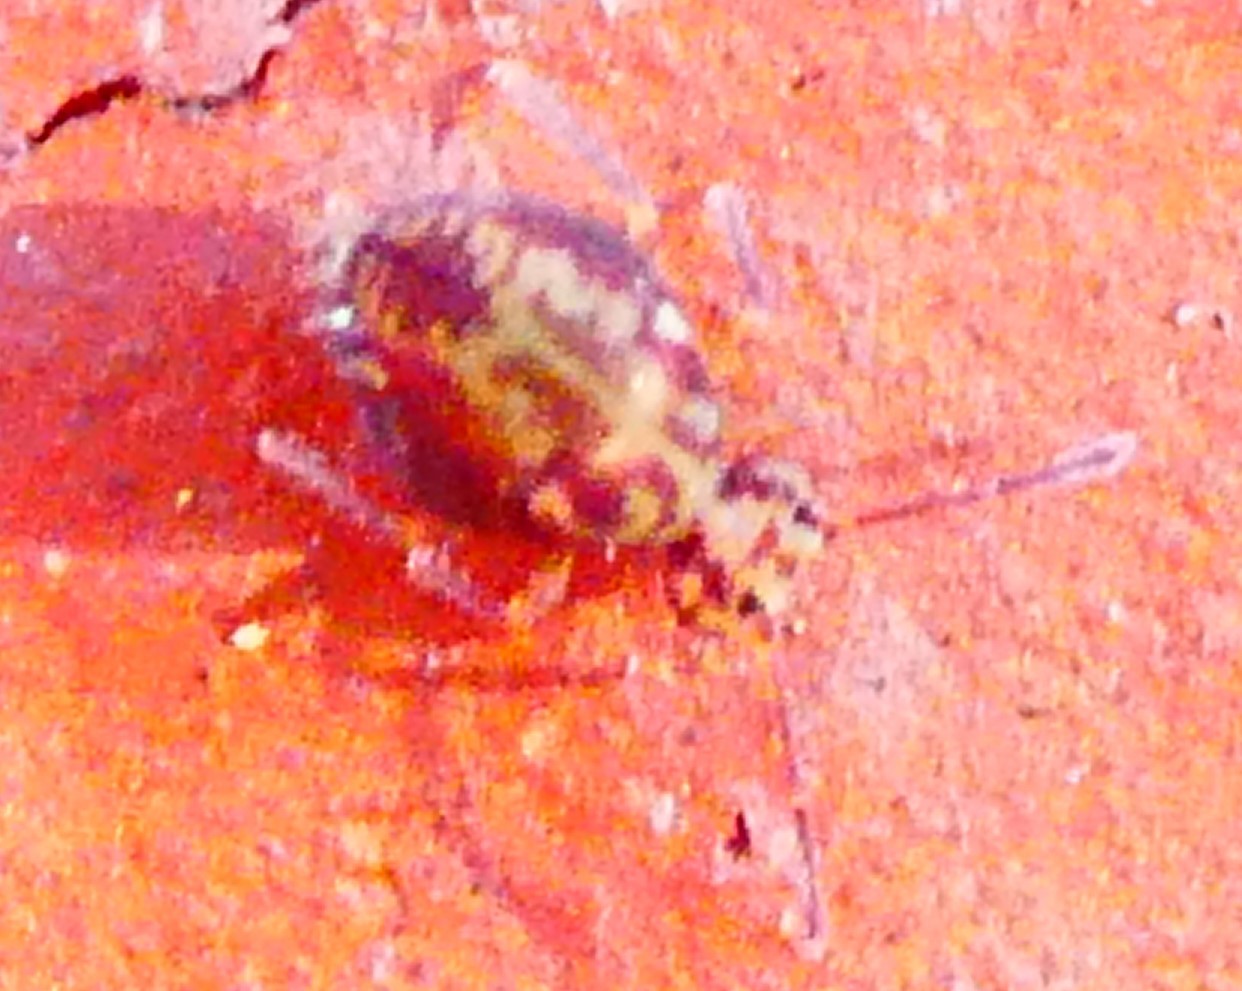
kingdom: Animalia
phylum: Arthropoda
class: Collembola
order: Symphypleona
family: Dicyrtomidae
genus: Dicyrtomina
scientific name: Dicyrtomina saundersi
